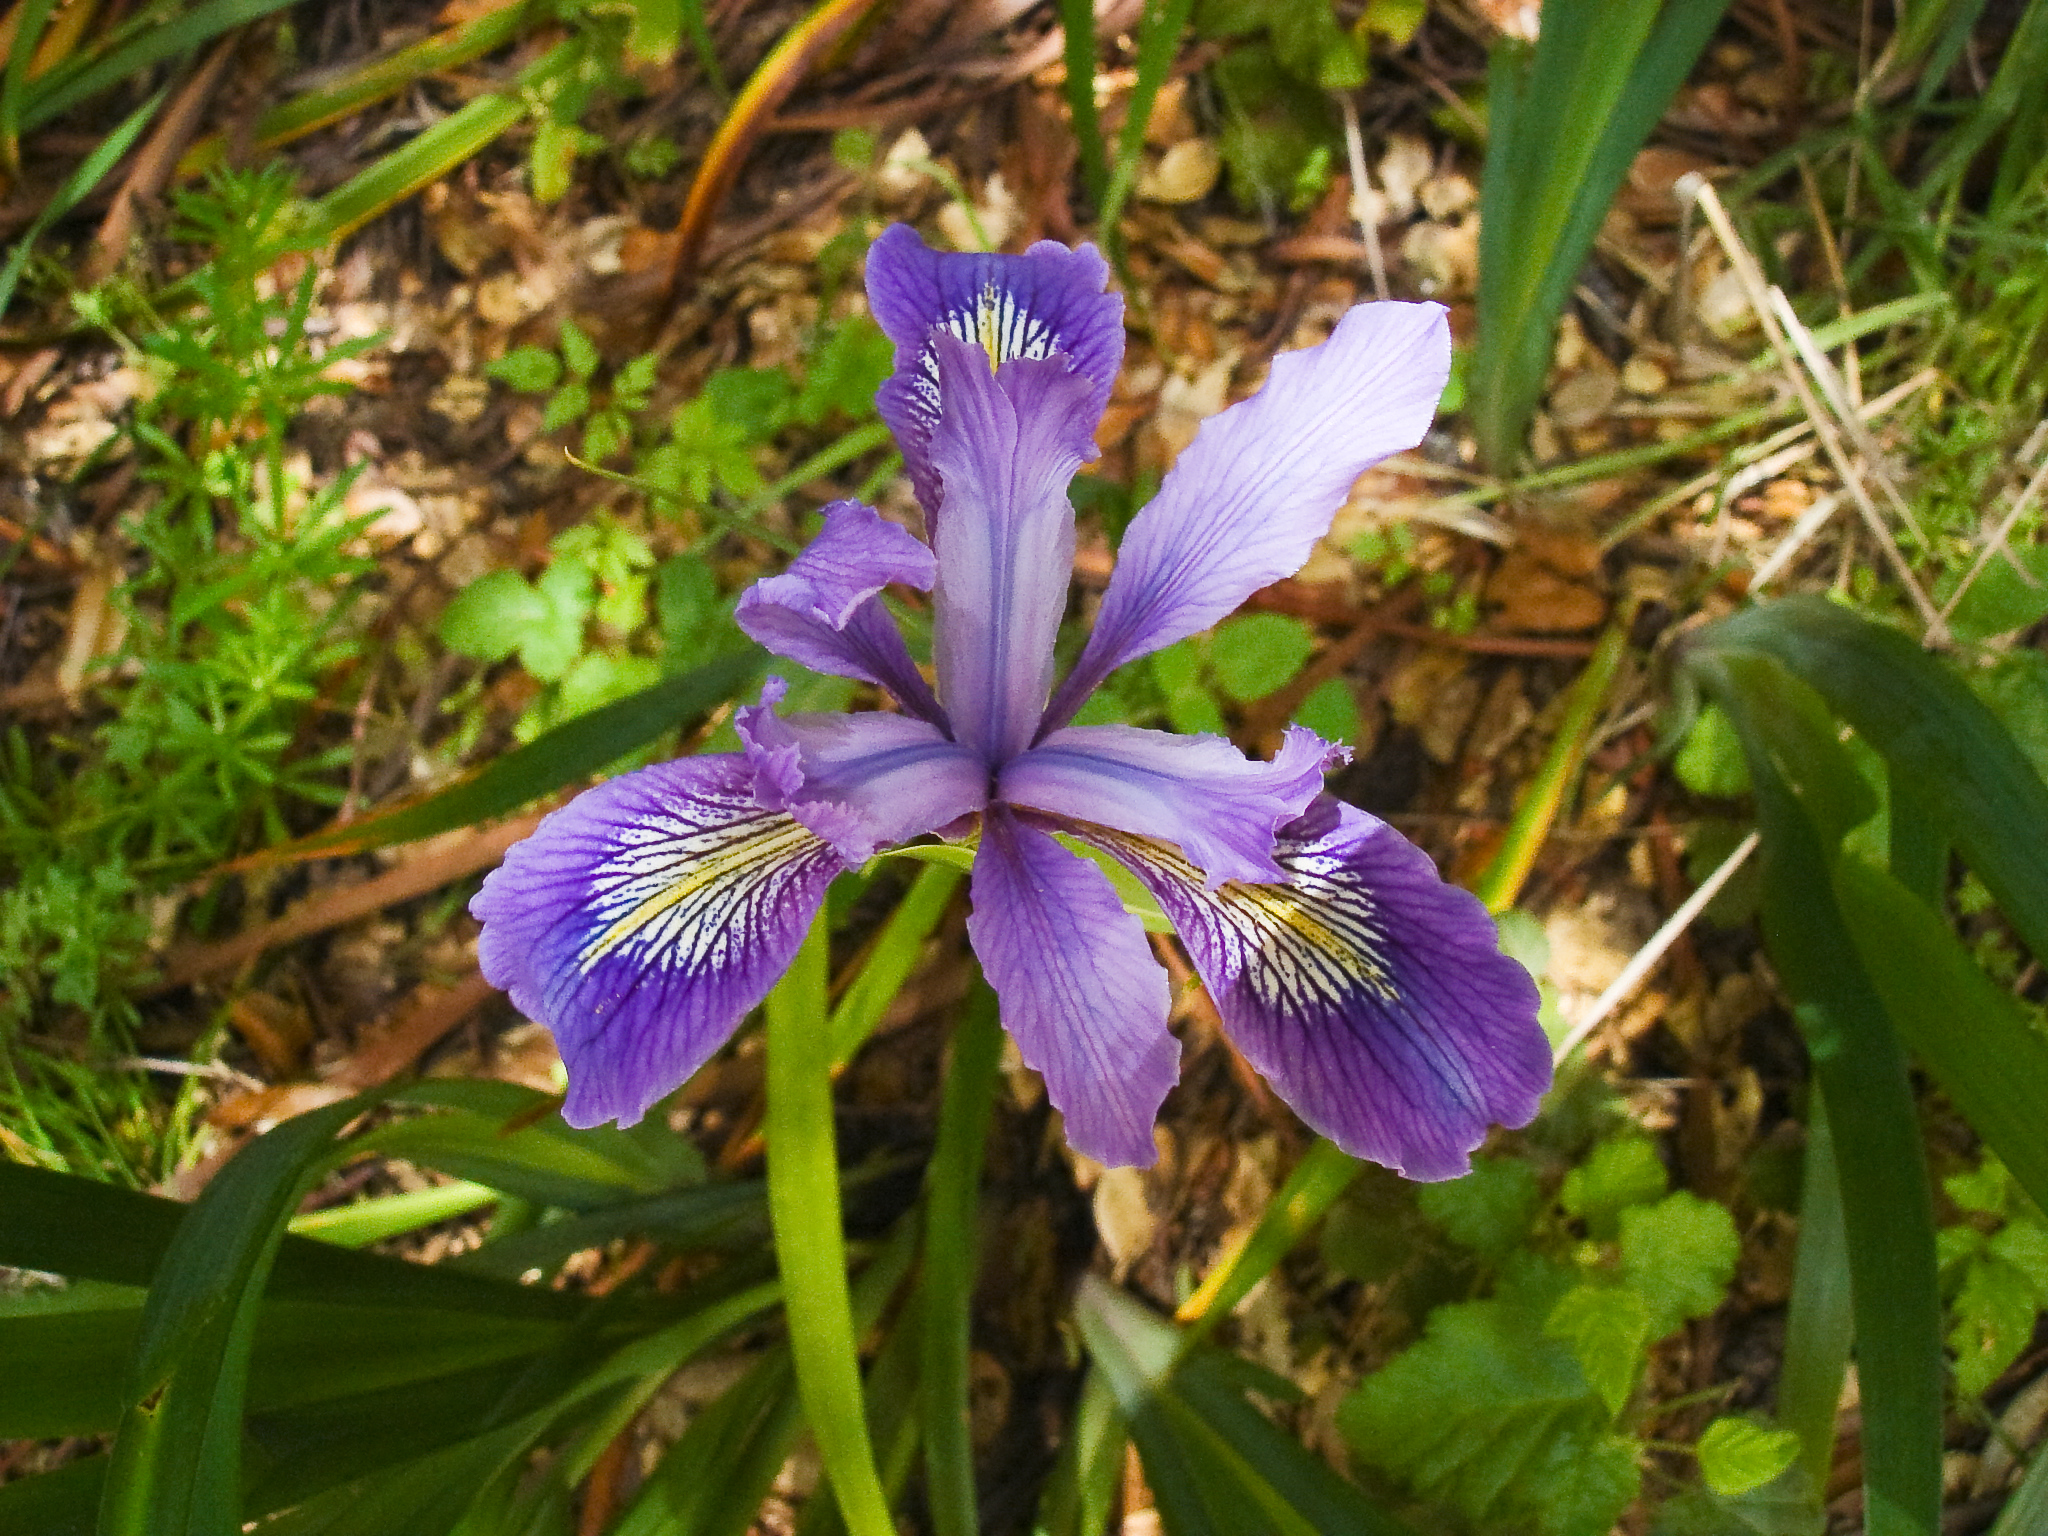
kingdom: Plantae
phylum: Tracheophyta
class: Liliopsida
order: Asparagales
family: Iridaceae
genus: Iris
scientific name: Iris douglasiana
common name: Marin iris
